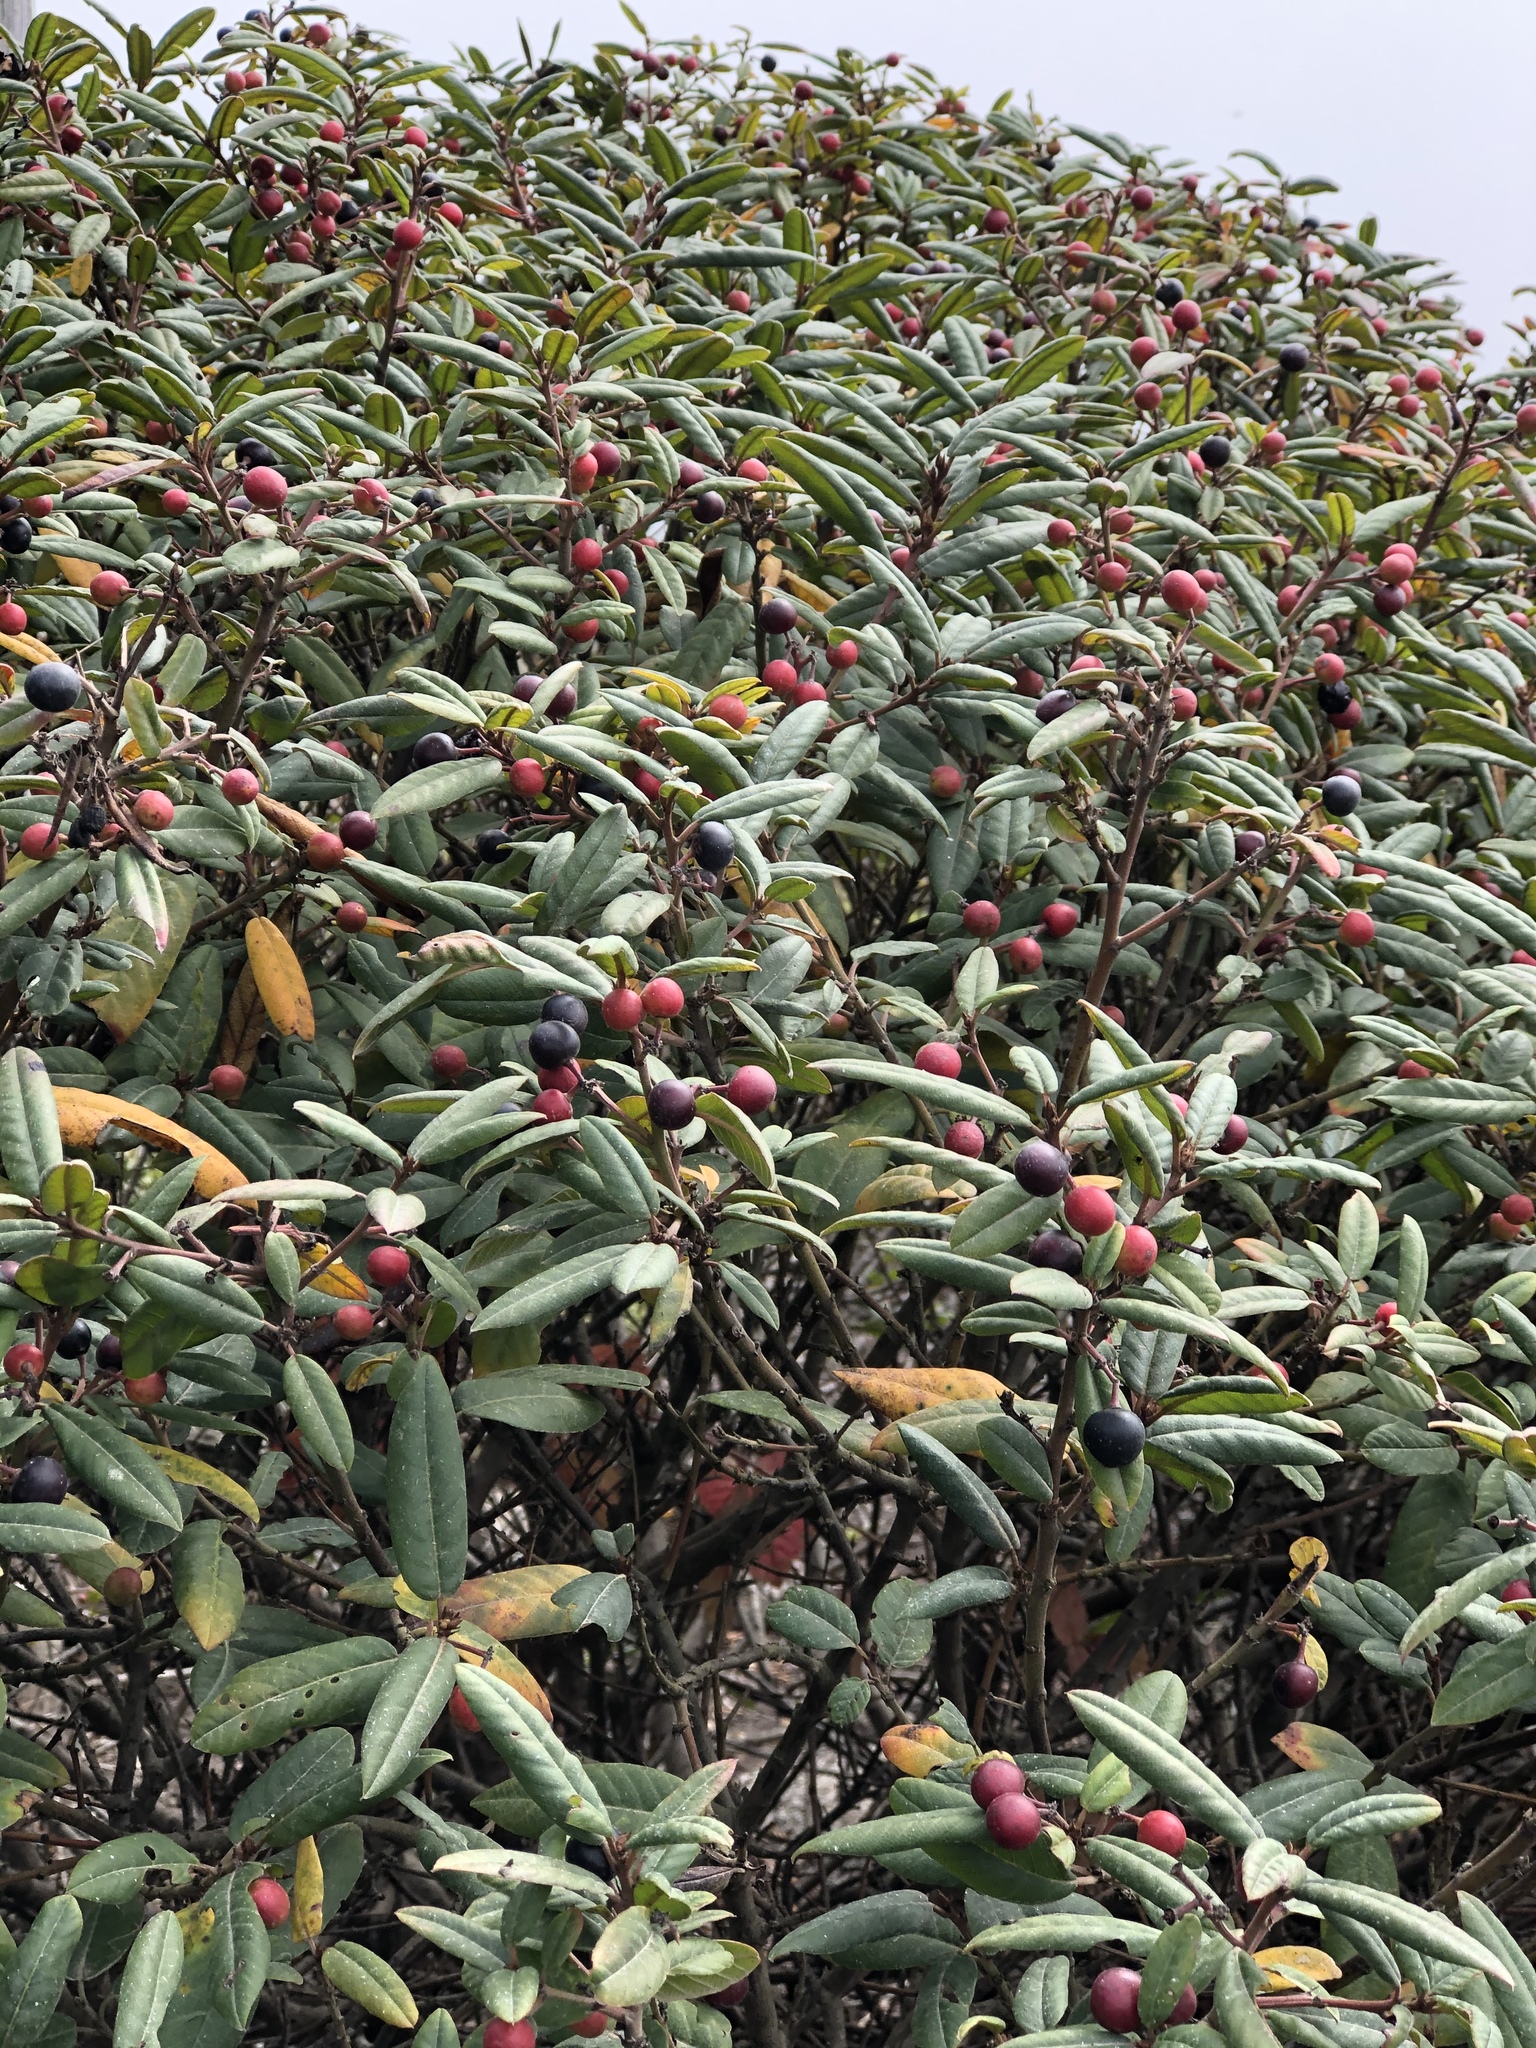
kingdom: Plantae
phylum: Tracheophyta
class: Magnoliopsida
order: Rosales
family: Rhamnaceae
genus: Frangula
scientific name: Frangula californica
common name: California buckthorn
